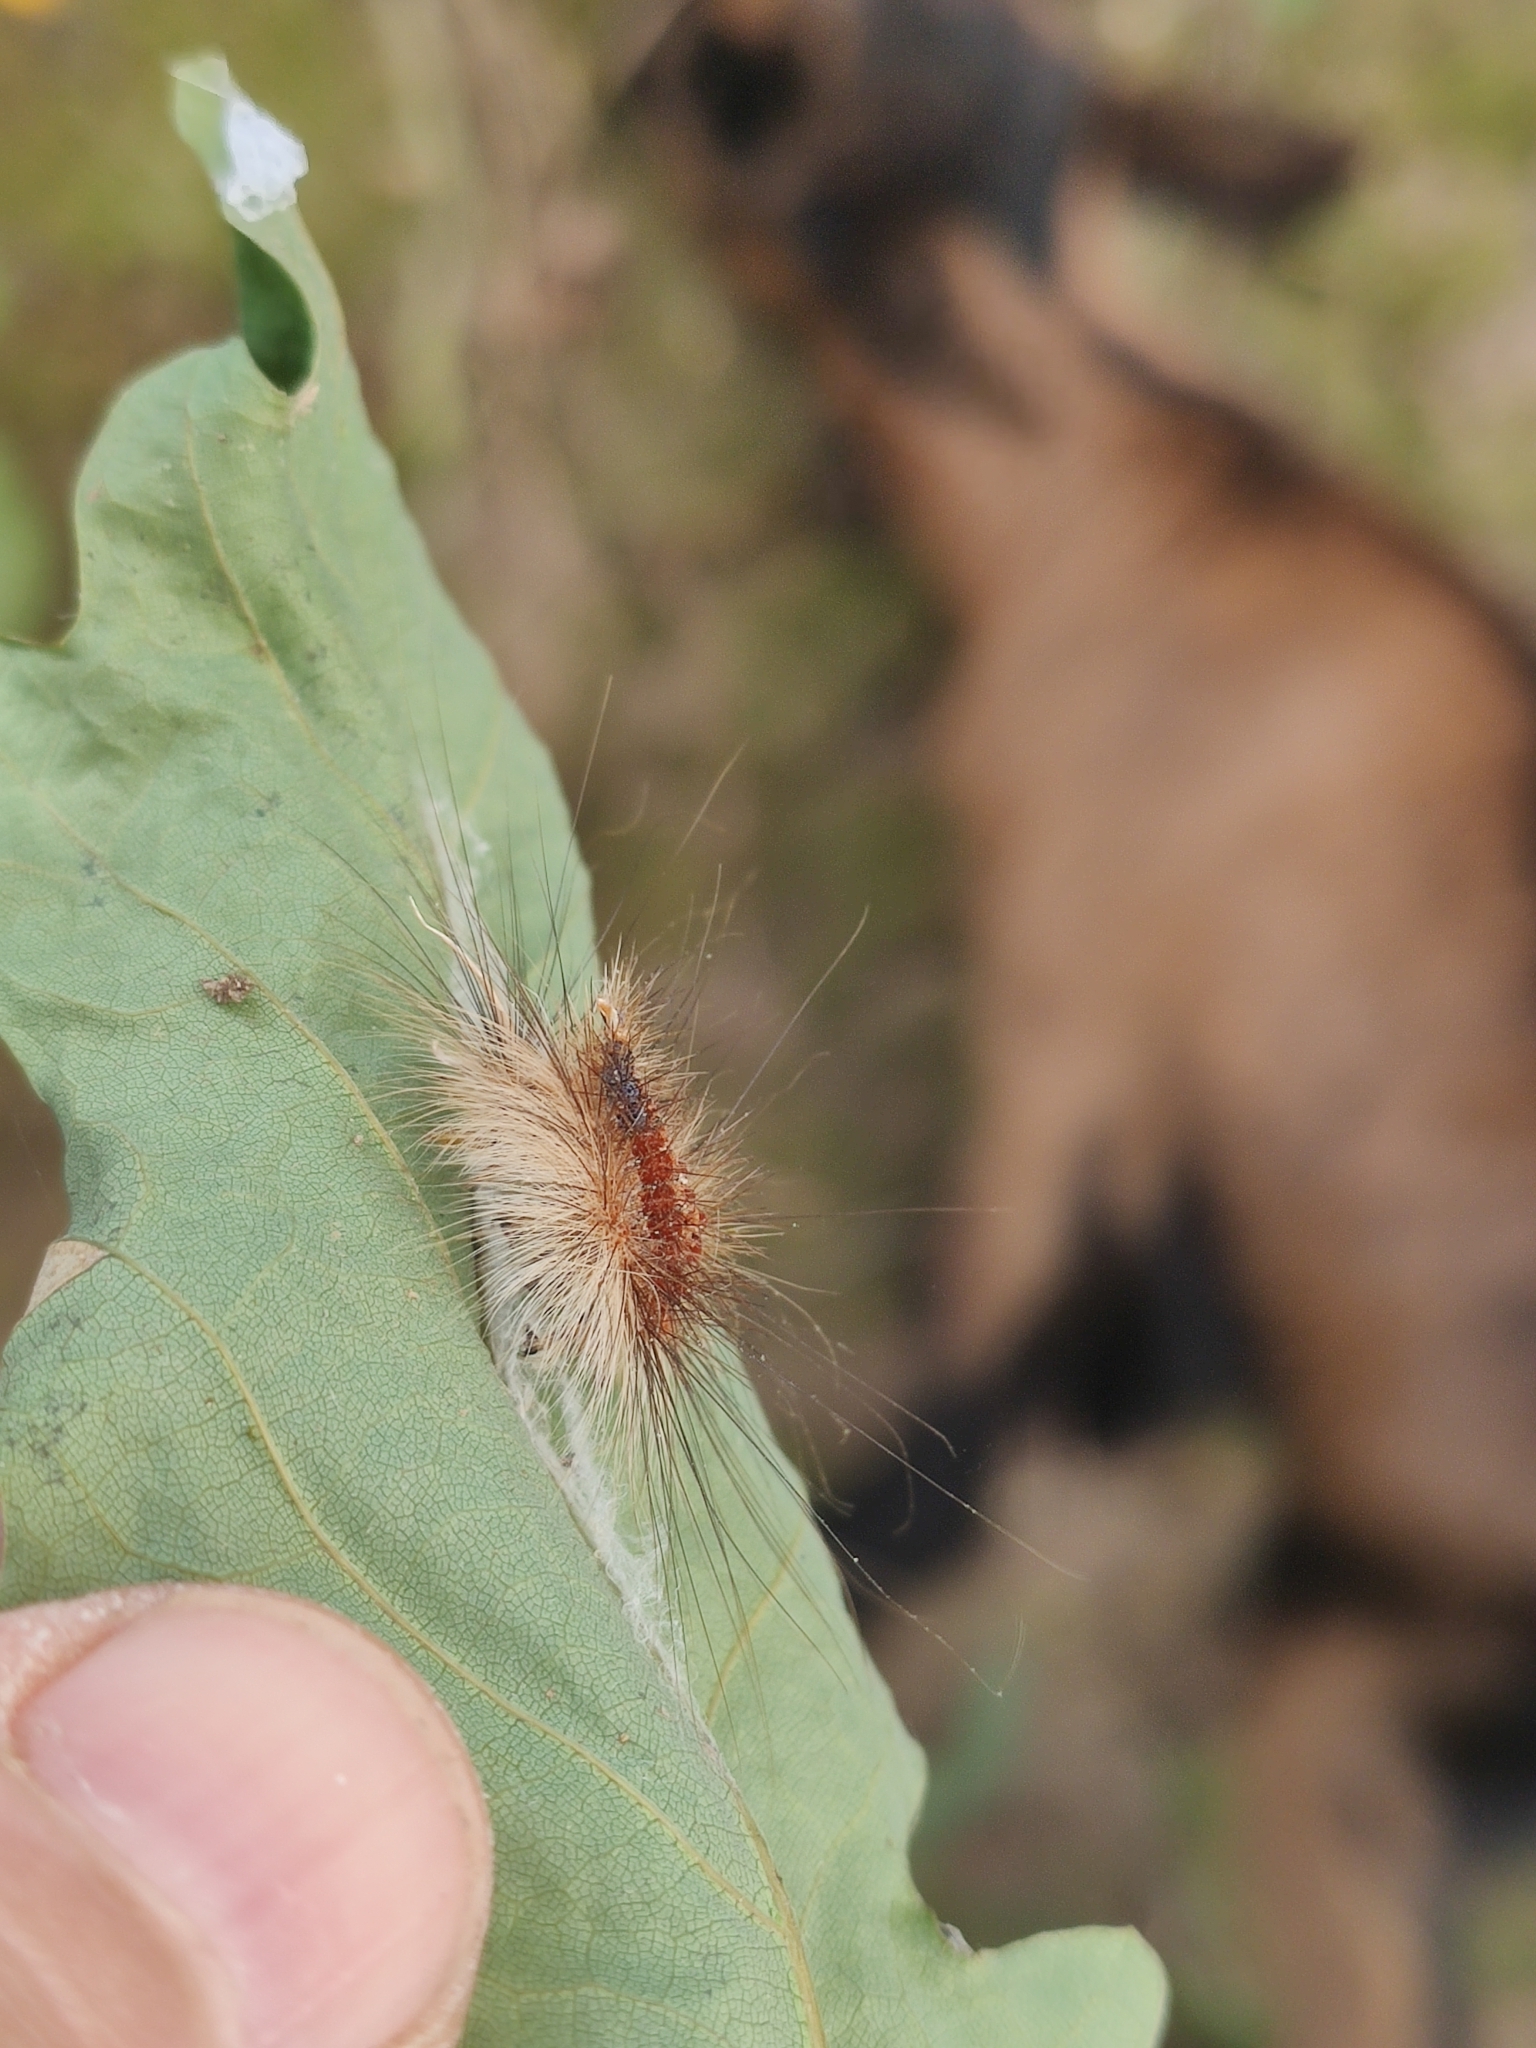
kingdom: Animalia
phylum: Arthropoda
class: Insecta
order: Lepidoptera
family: Erebidae
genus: Lymantria
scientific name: Lymantria dispar
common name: Gypsy moth
